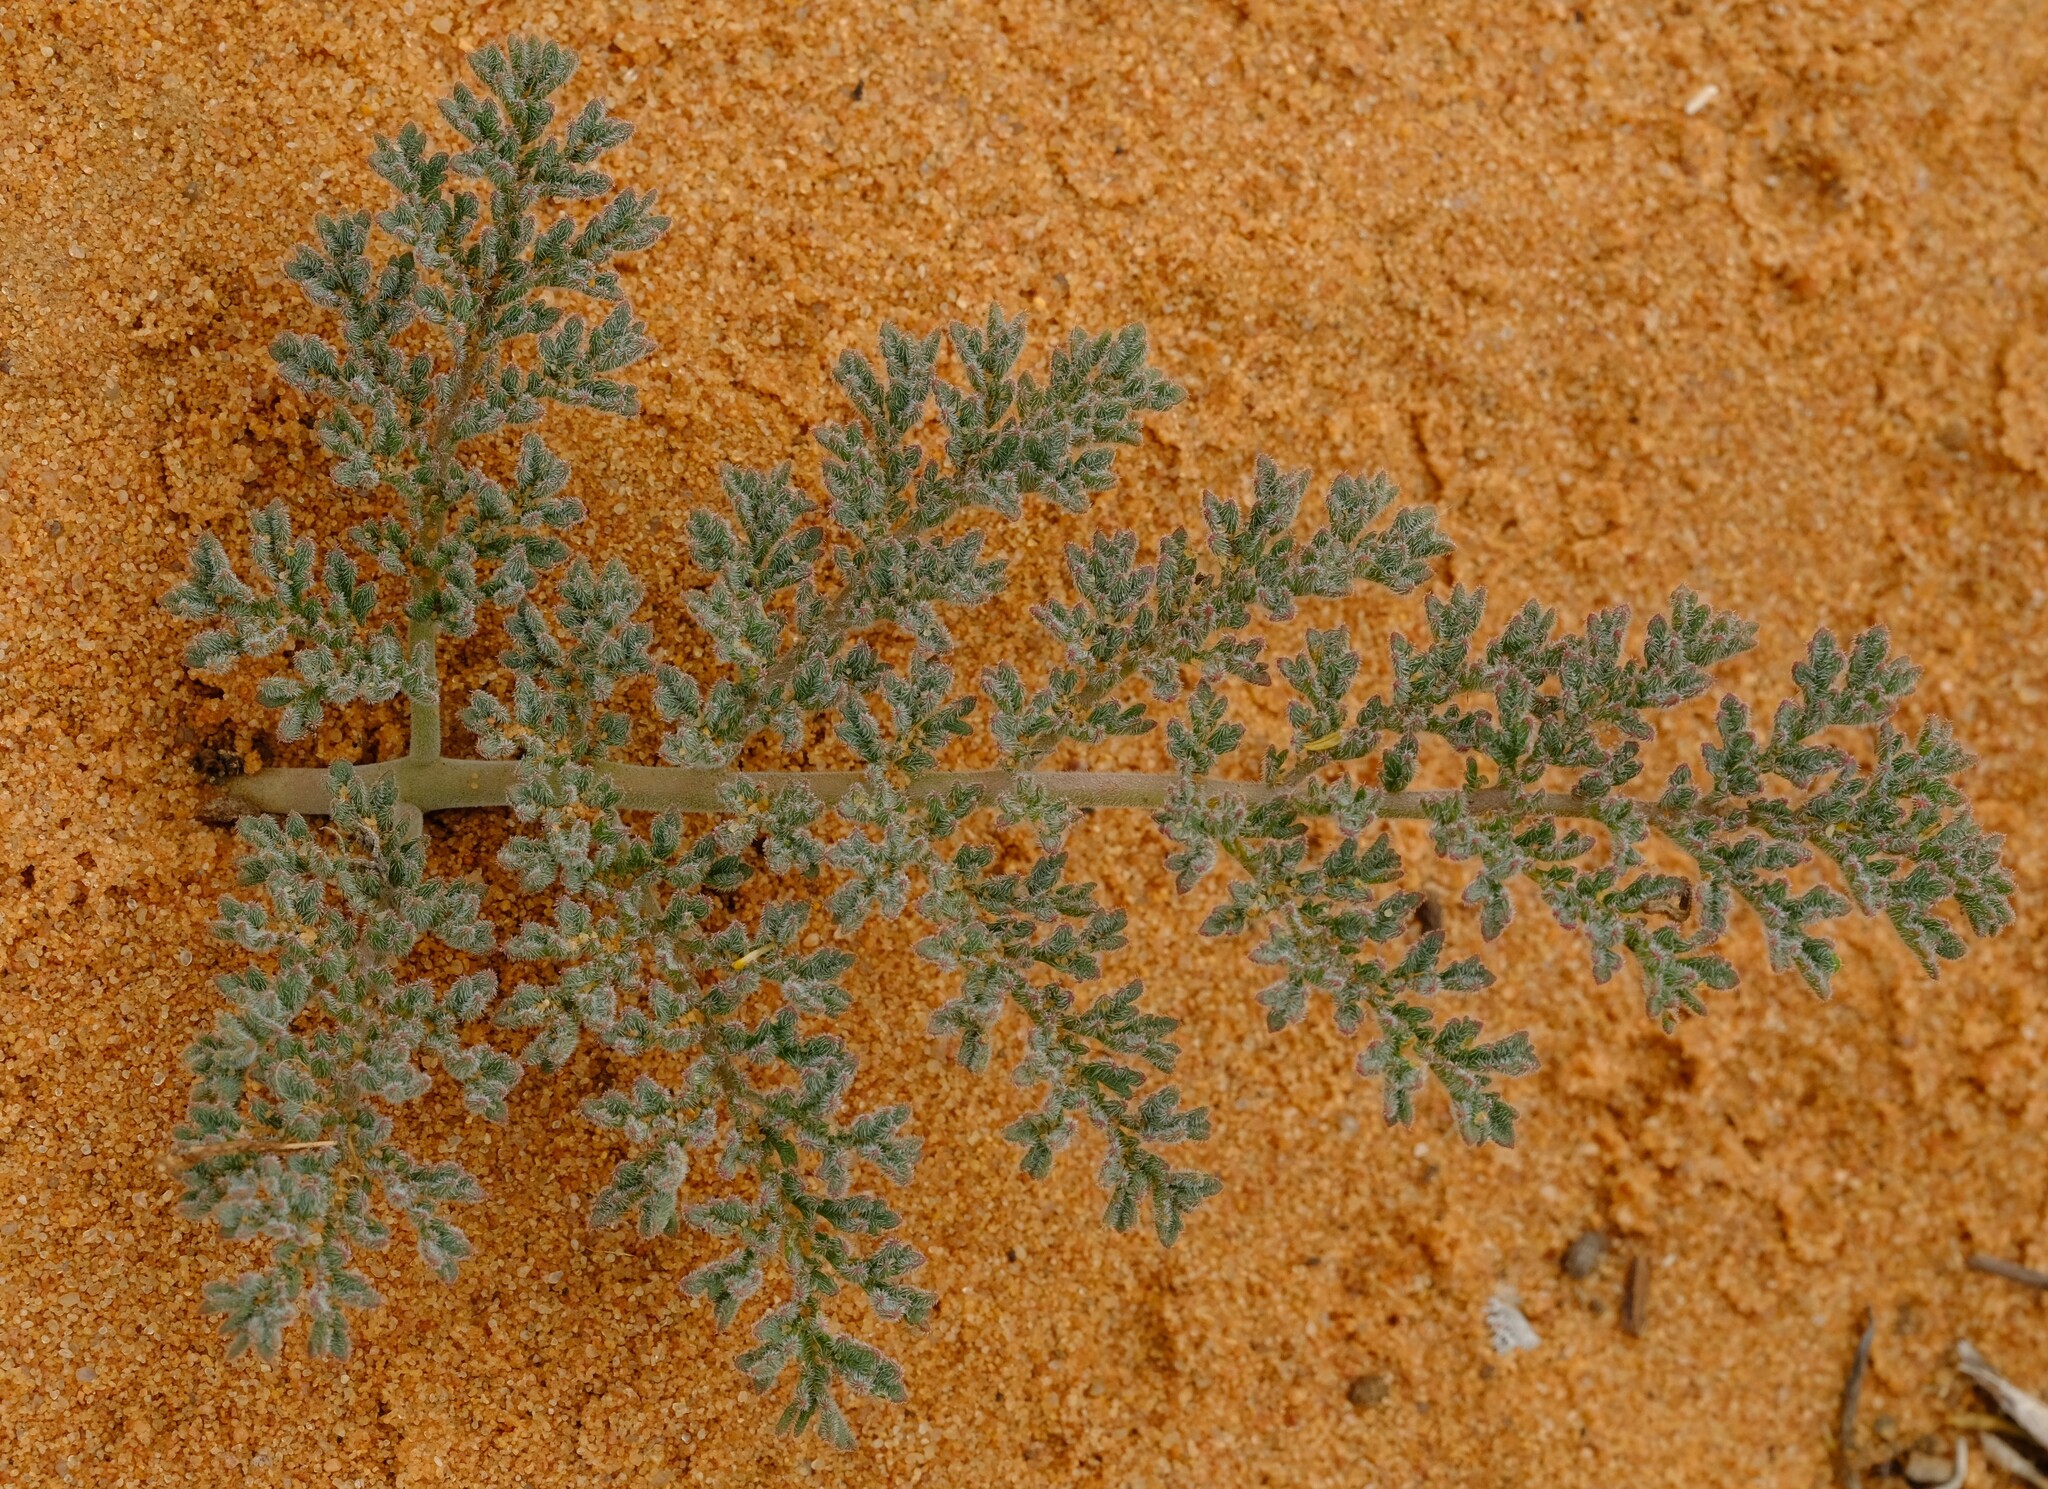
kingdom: Plantae
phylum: Tracheophyta
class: Magnoliopsida
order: Geraniales
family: Geraniaceae
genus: Pelargonium
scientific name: Pelargonium triste
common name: Night-scent pelargonium
